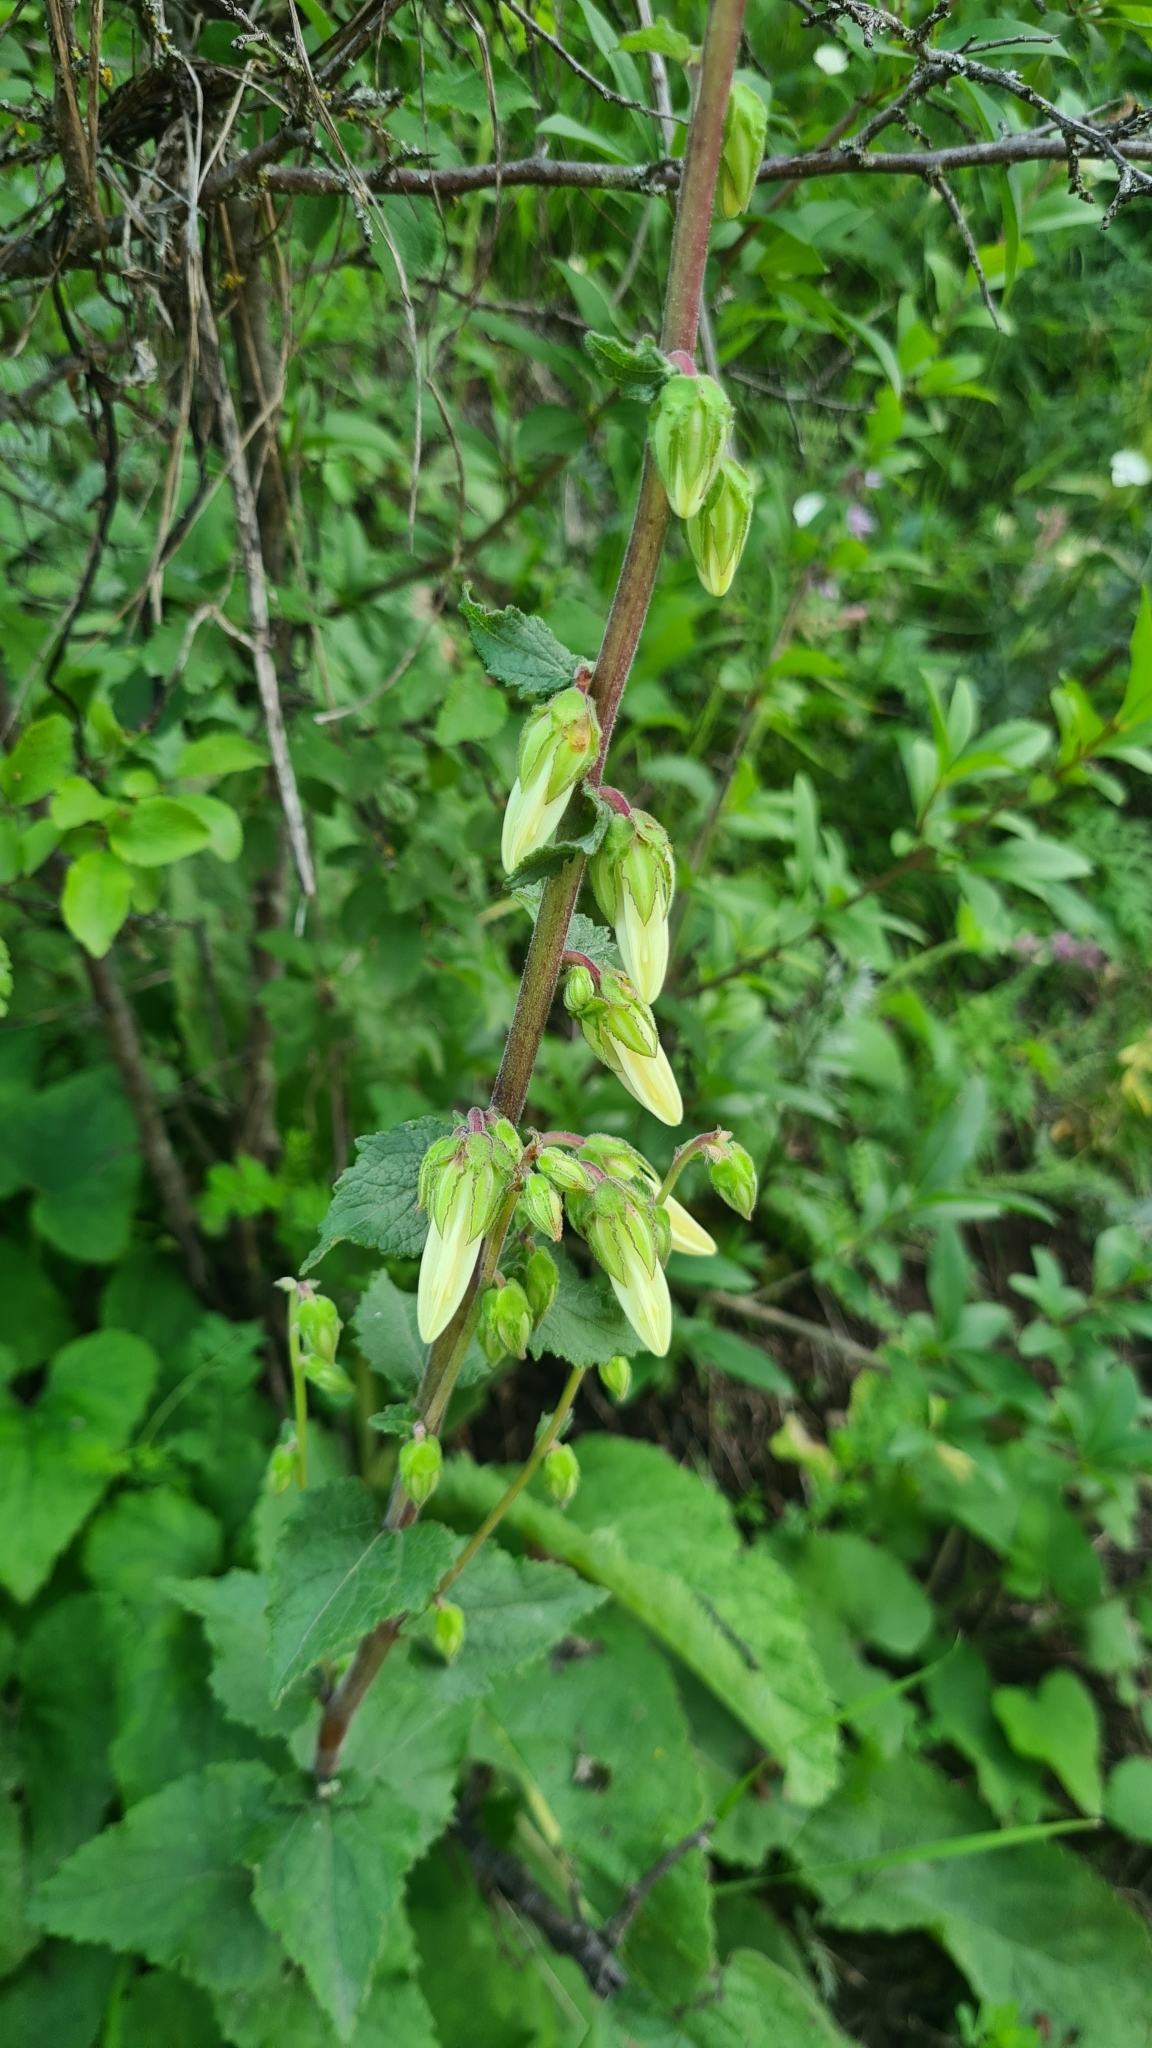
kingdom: Plantae
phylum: Tracheophyta
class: Magnoliopsida
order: Asterales
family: Campanulaceae
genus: Campanula
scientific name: Campanula alliariifolia
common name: Cornish bellflower
